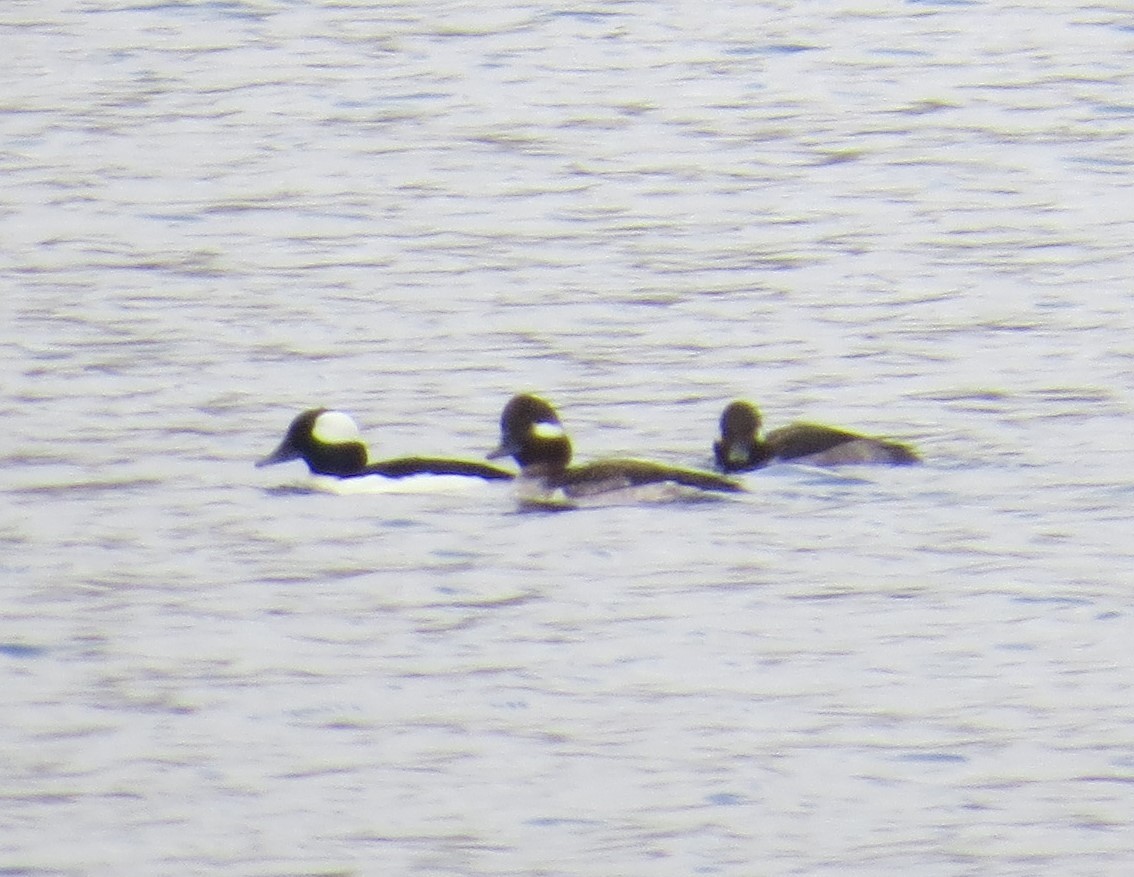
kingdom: Animalia
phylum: Chordata
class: Aves
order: Anseriformes
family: Anatidae
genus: Bucephala
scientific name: Bucephala albeola
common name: Bufflehead
